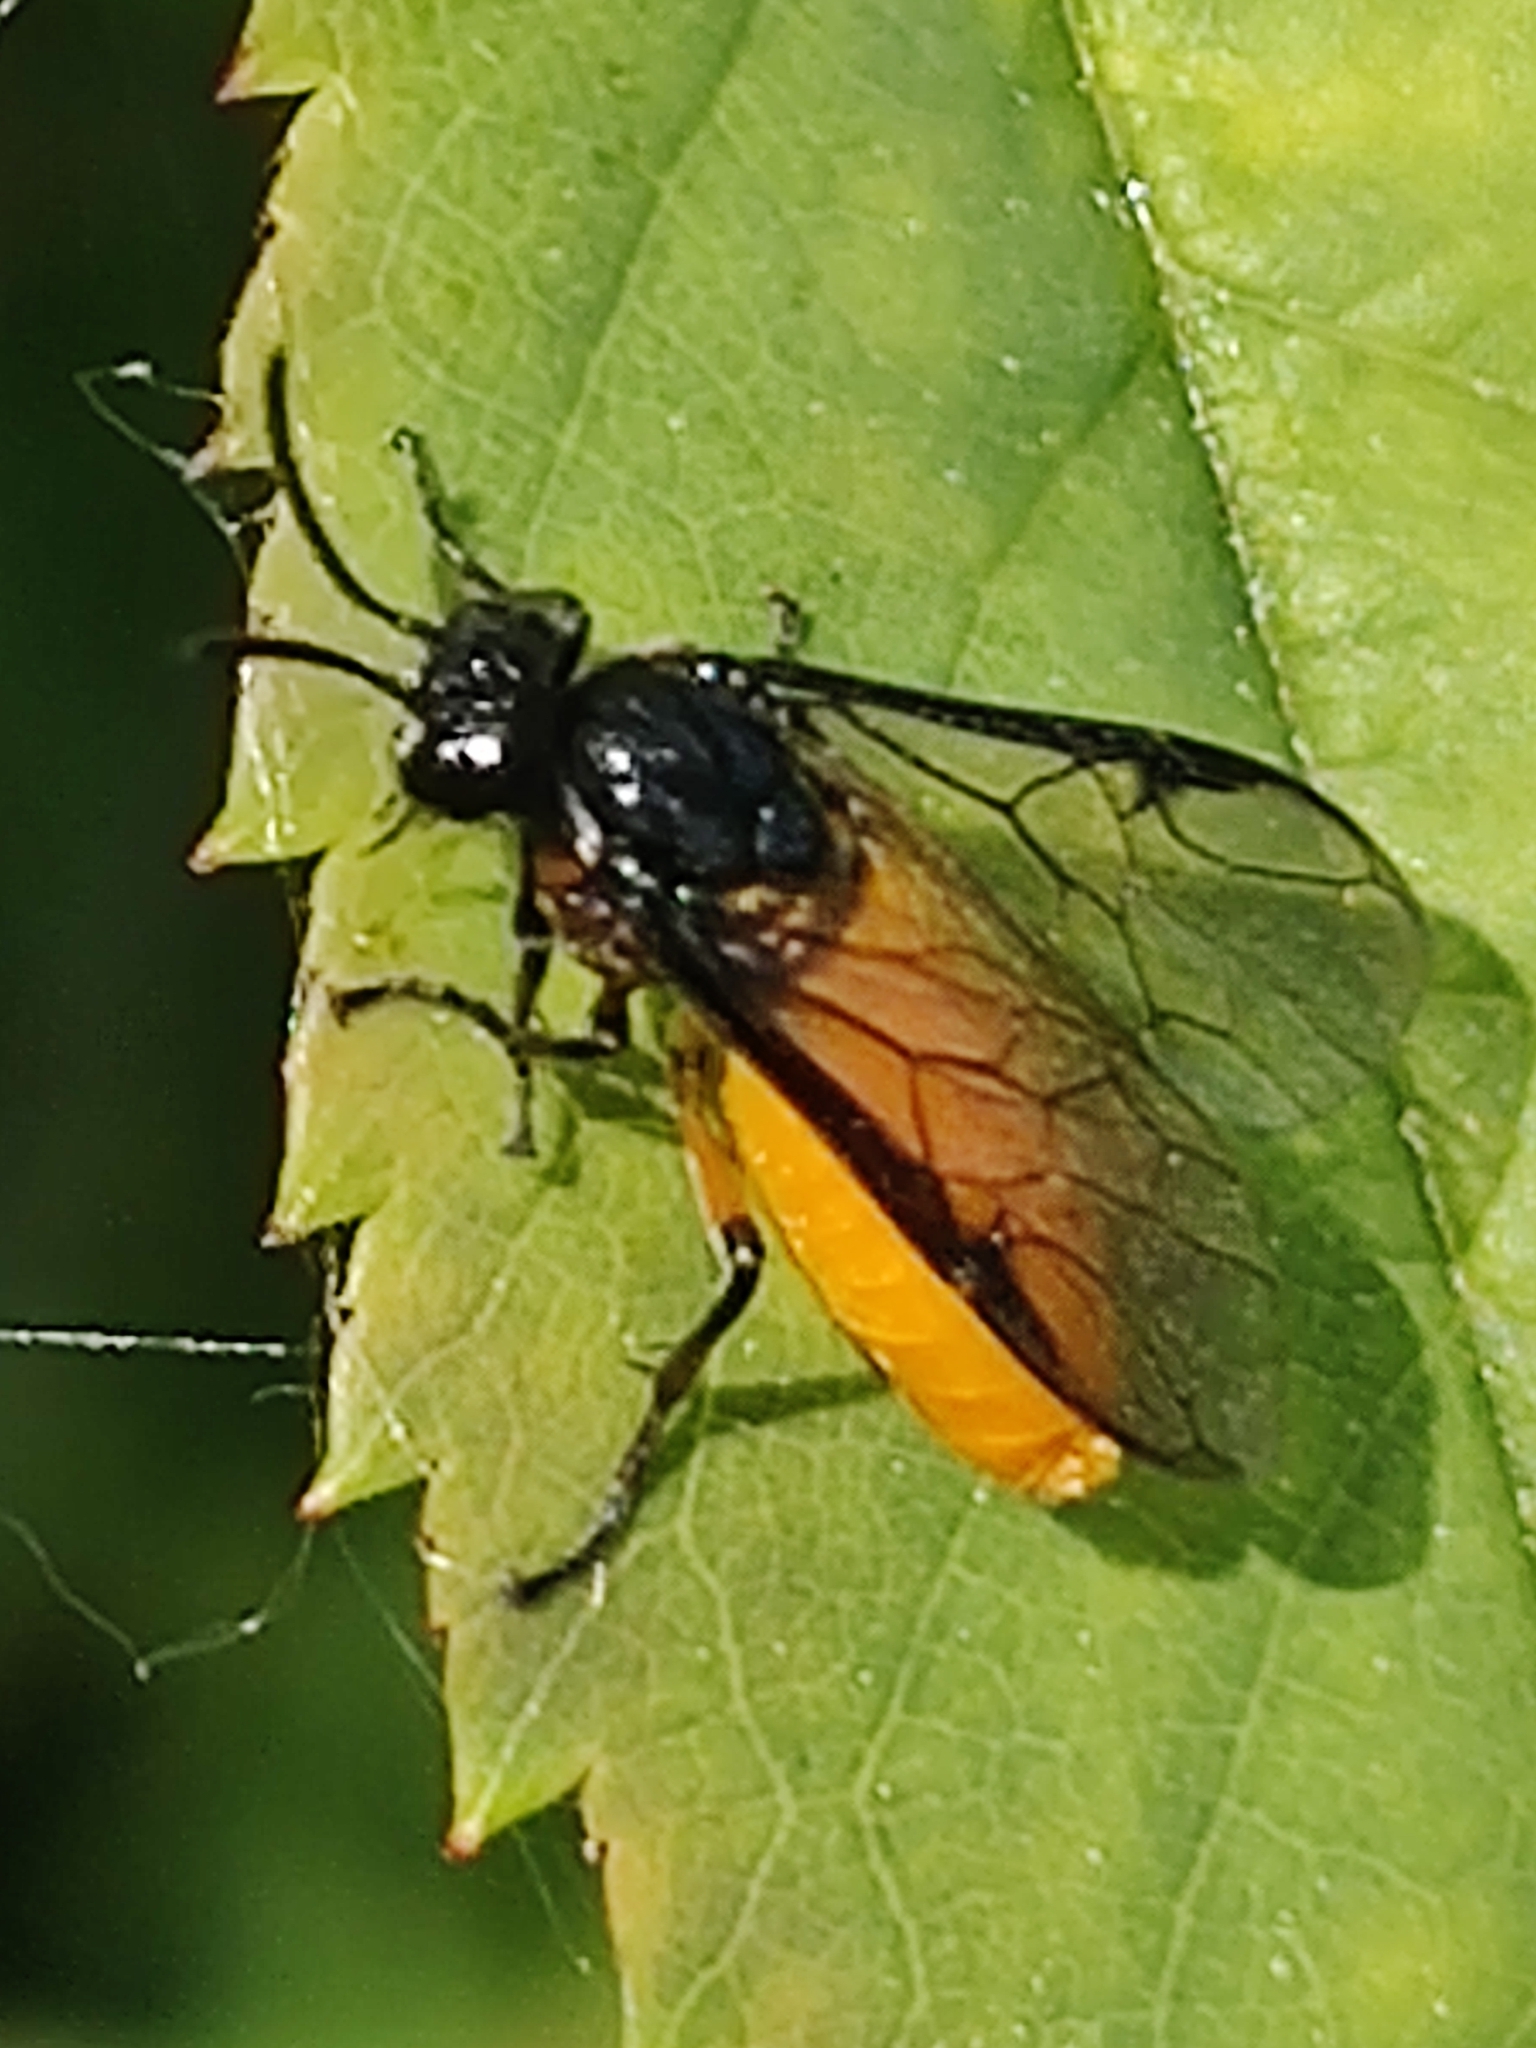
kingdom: Animalia
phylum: Arthropoda
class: Insecta
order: Hymenoptera
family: Argidae
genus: Arge
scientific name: Arge pagana
